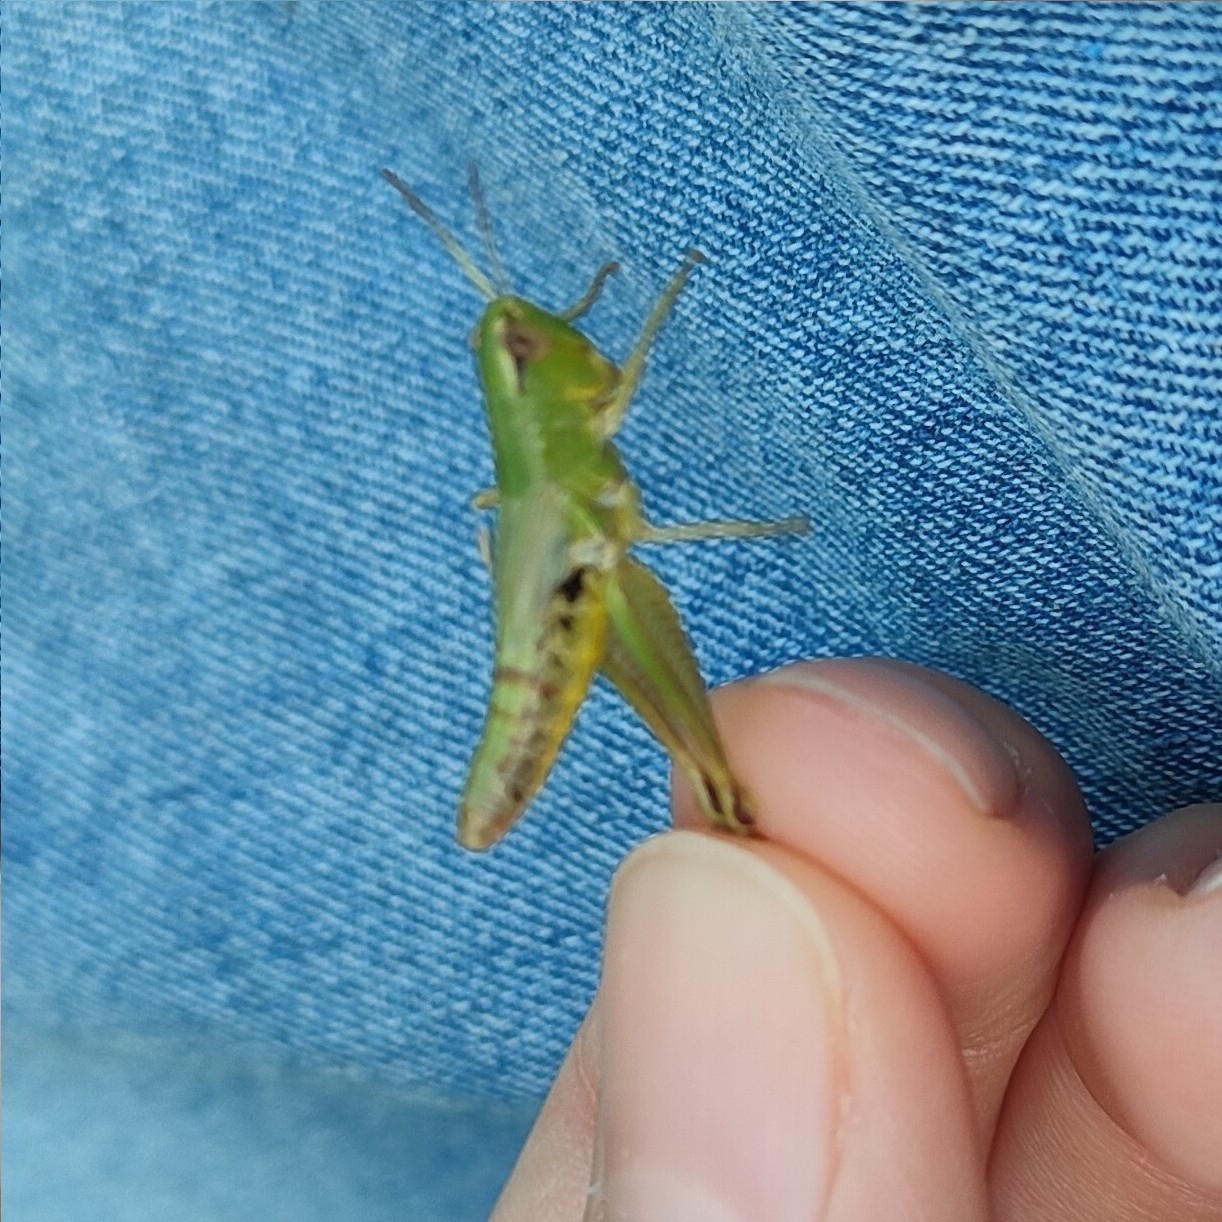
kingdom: Animalia
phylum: Arthropoda
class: Insecta
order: Orthoptera
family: Acrididae
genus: Pseudochorthippus
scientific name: Pseudochorthippus parallelus
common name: Meadow grasshopper
